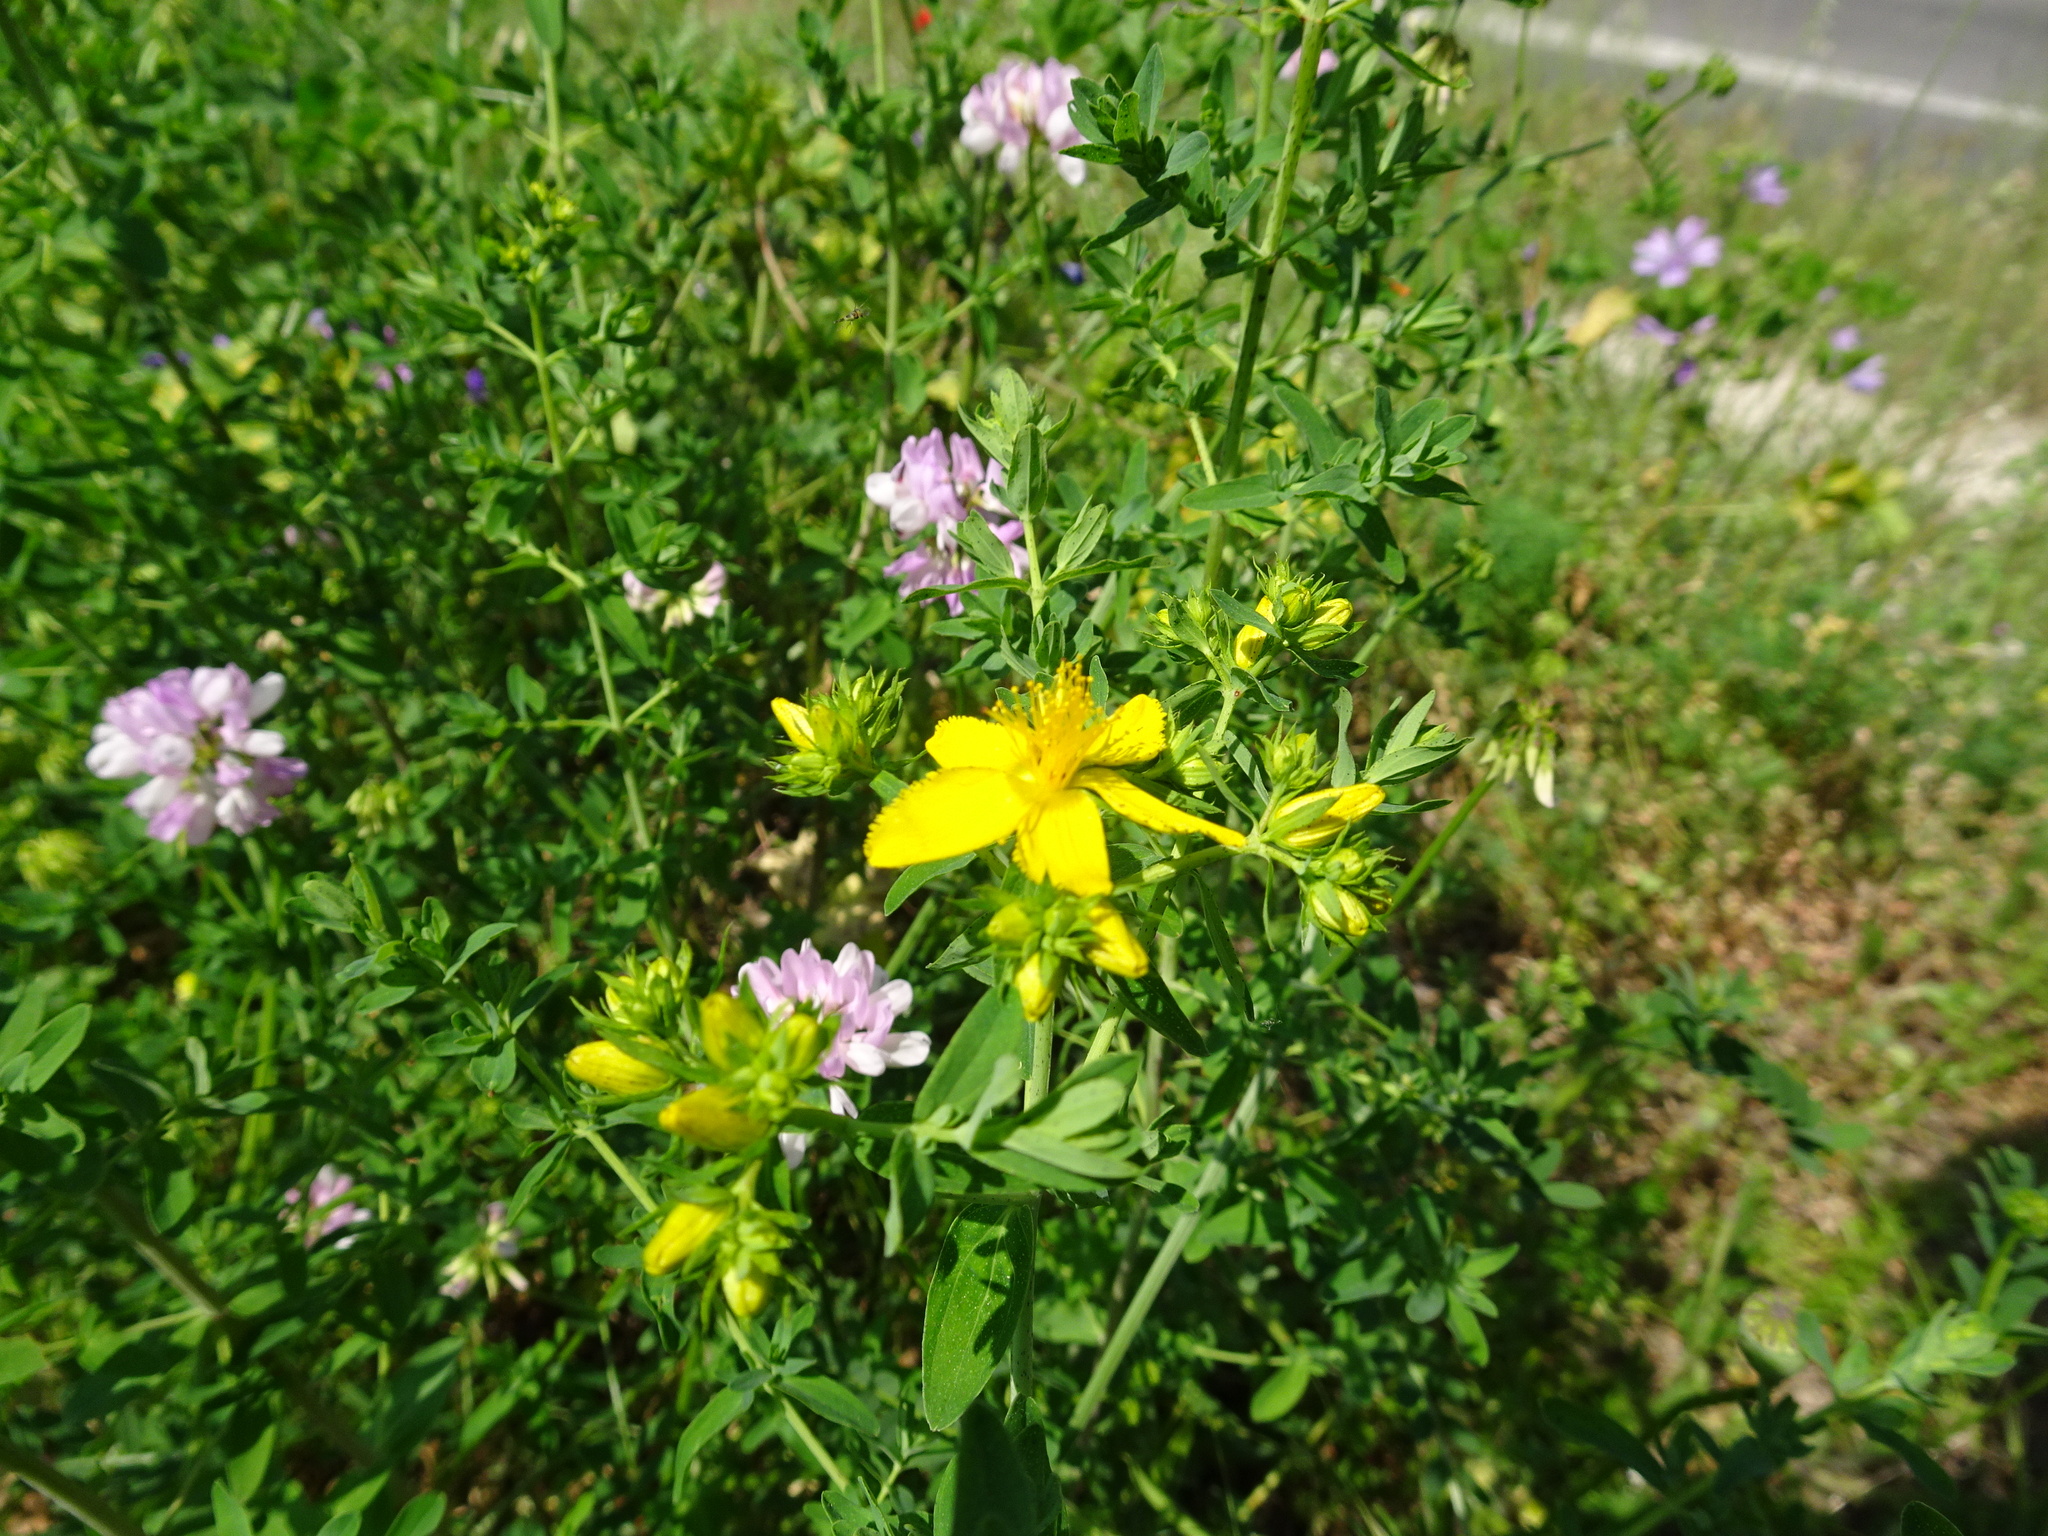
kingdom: Plantae
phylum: Tracheophyta
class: Magnoliopsida
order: Malpighiales
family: Hypericaceae
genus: Hypericum
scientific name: Hypericum perforatum
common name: Common st. johnswort
